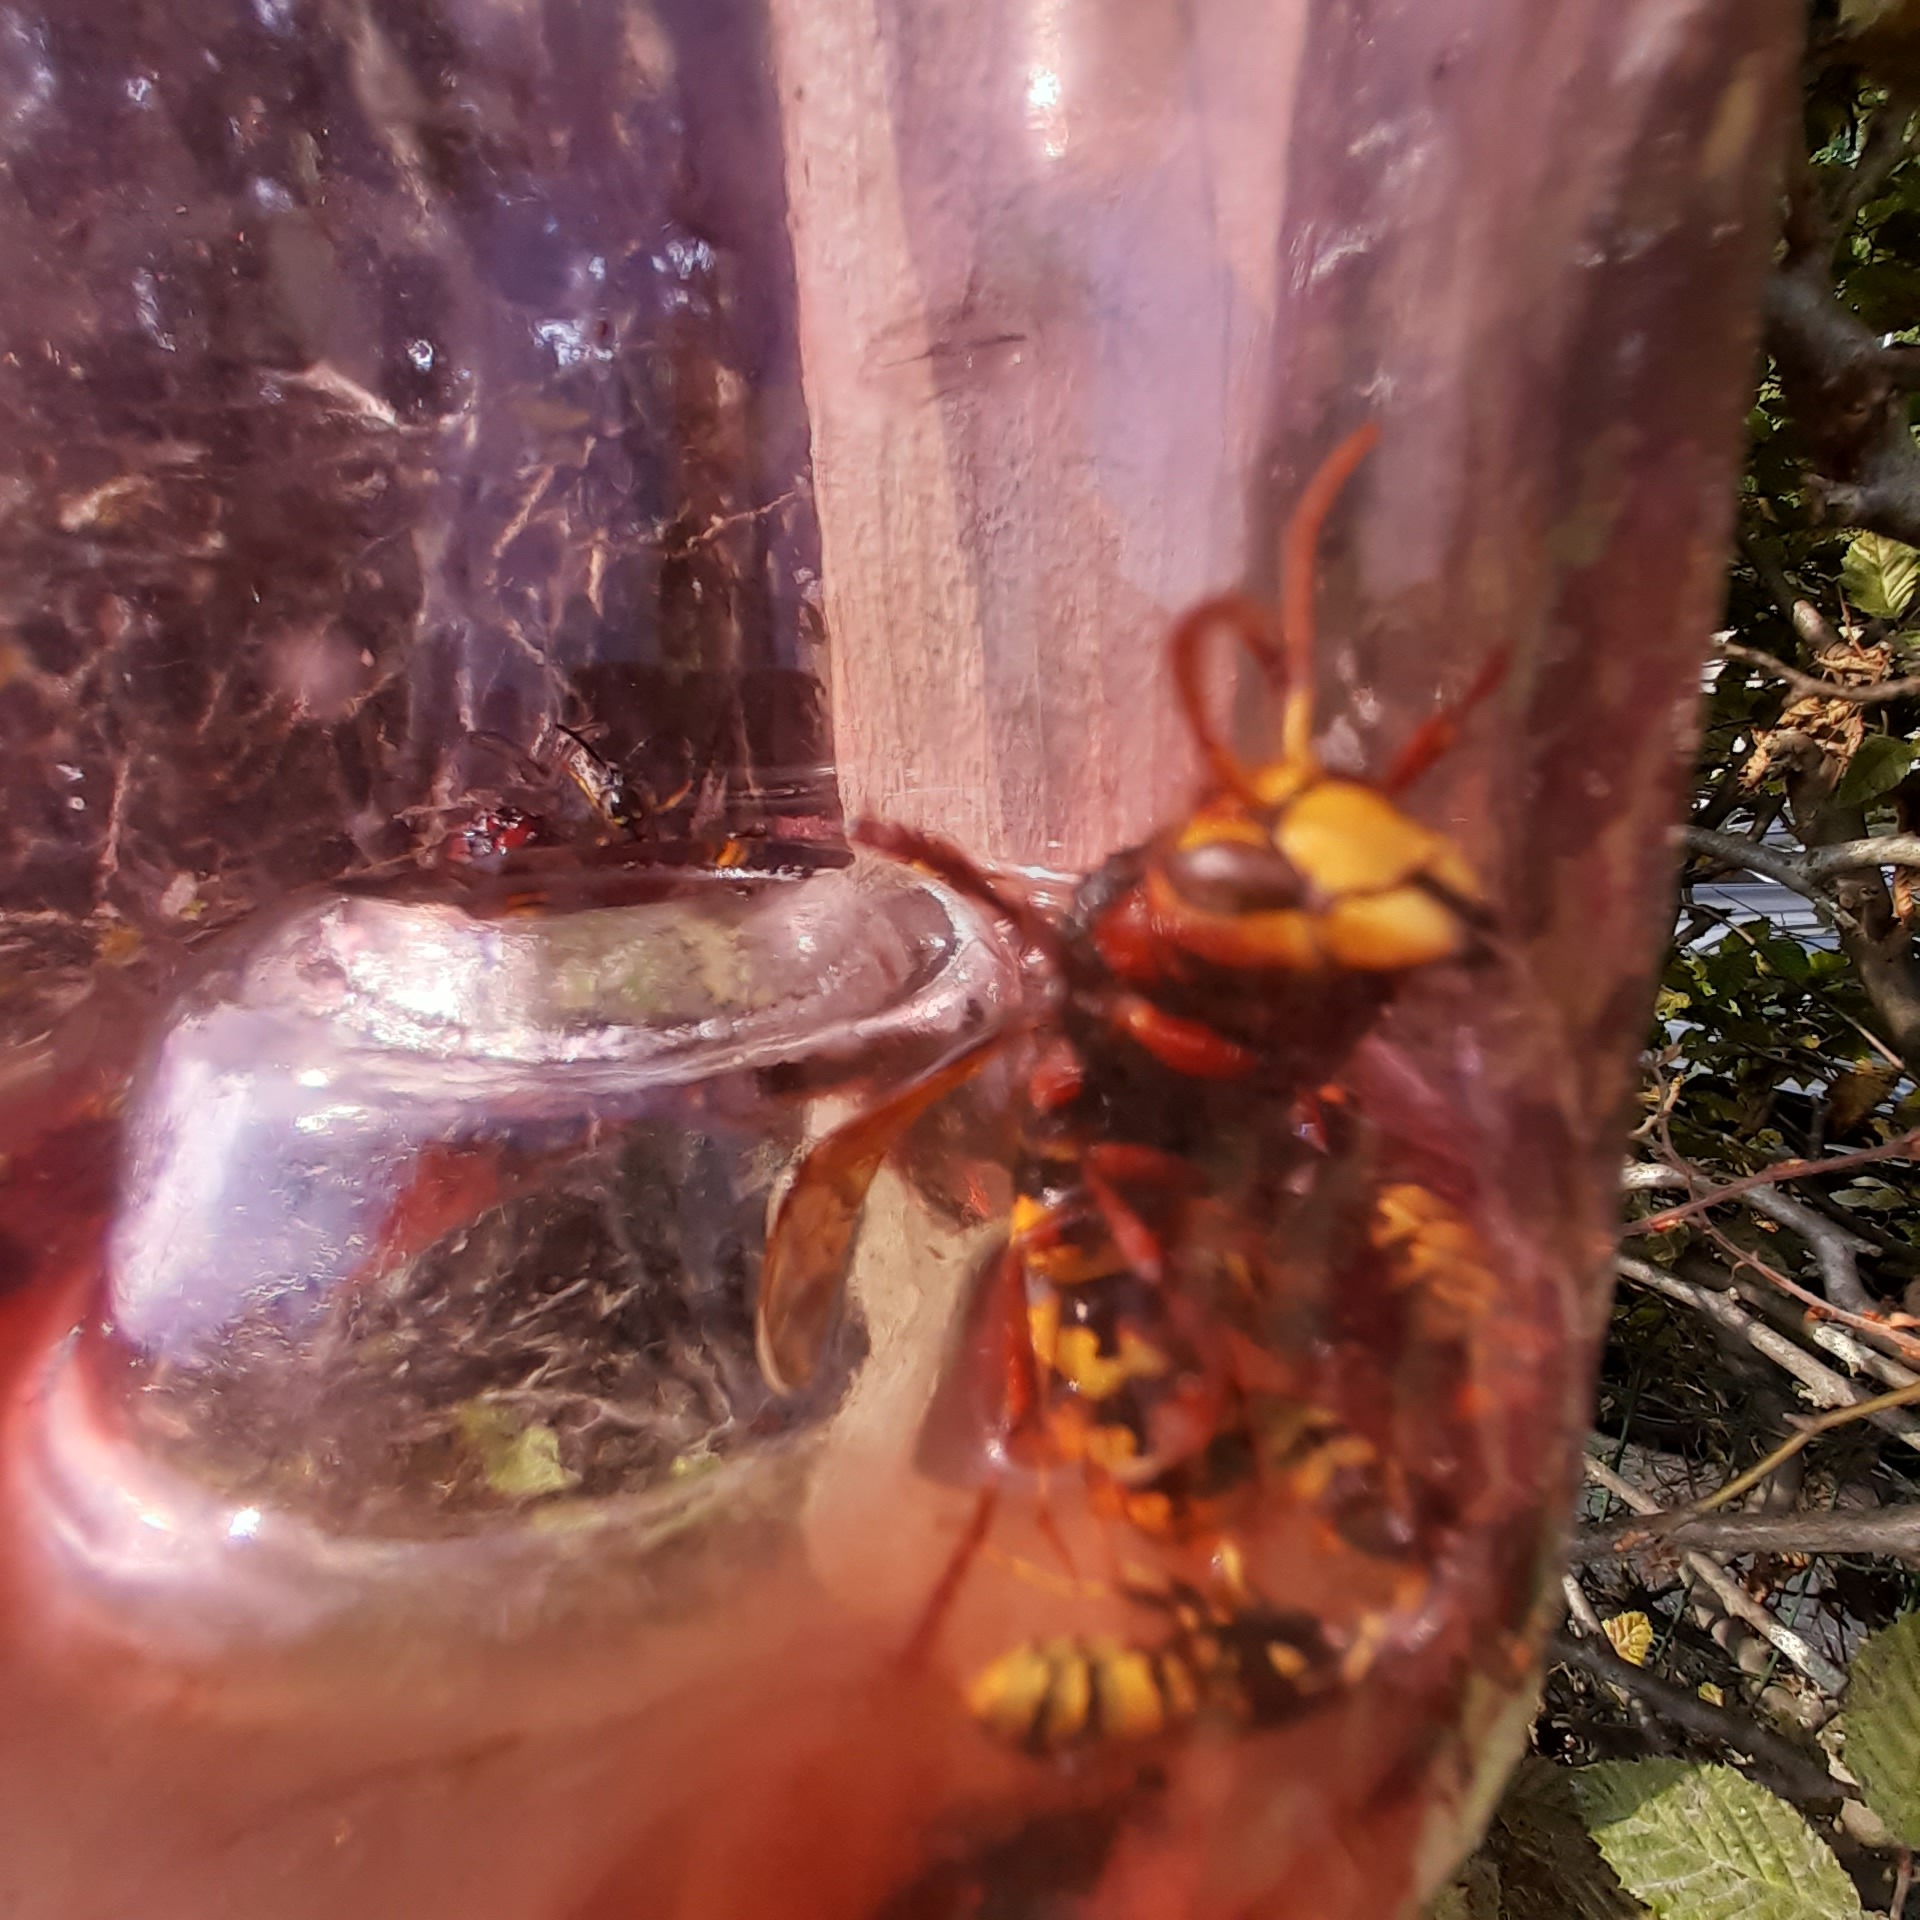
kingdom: Animalia
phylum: Arthropoda
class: Insecta
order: Hymenoptera
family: Vespidae
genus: Vespa
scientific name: Vespa crabro
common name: Hornet
